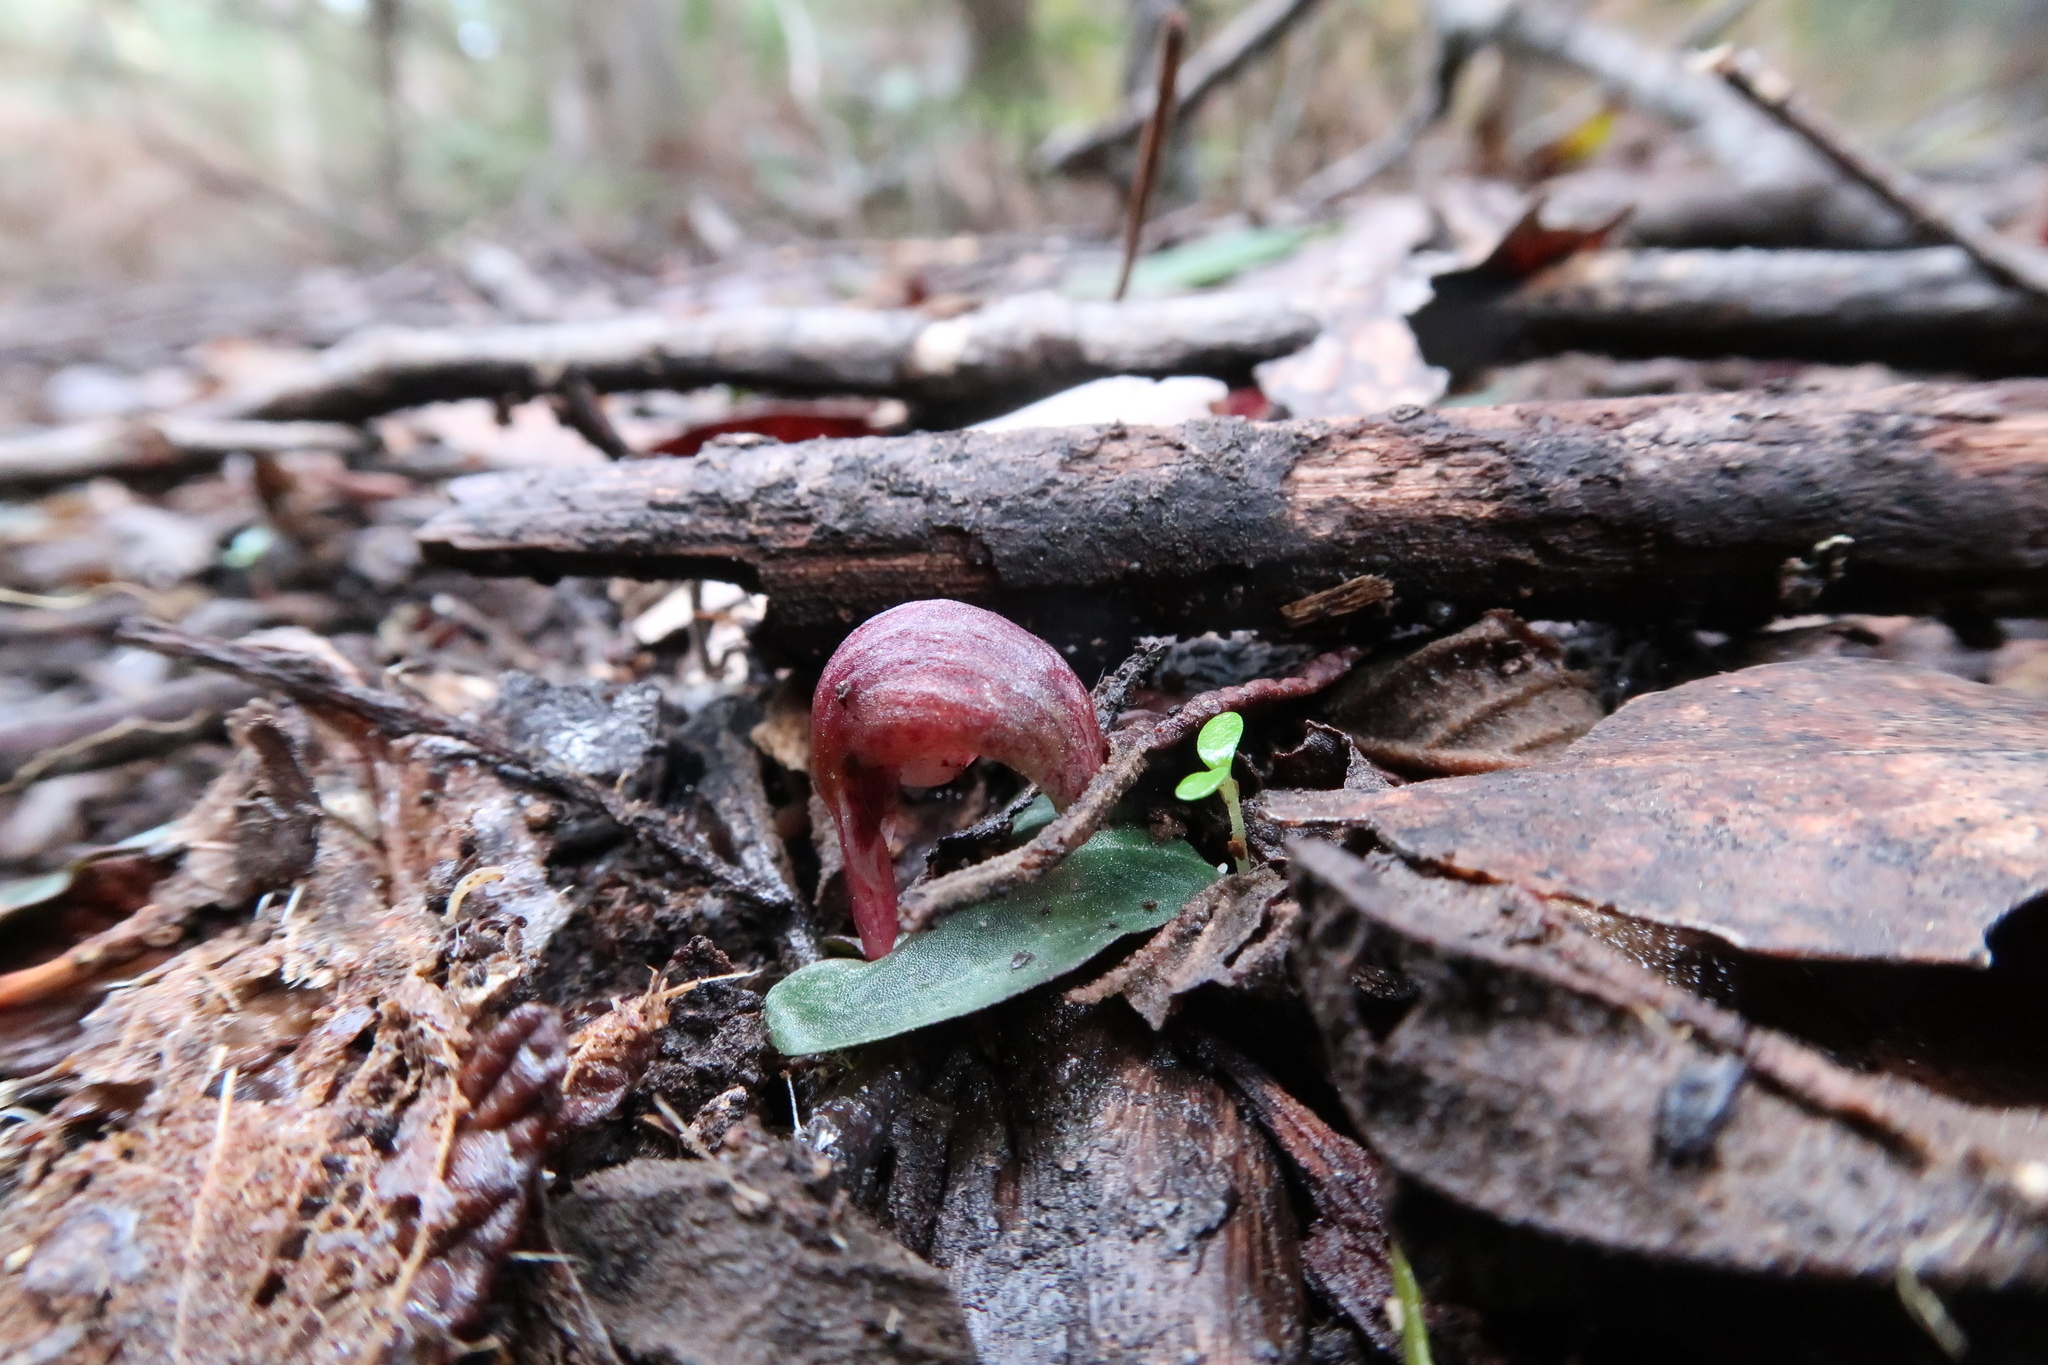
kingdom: Plantae
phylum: Tracheophyta
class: Liliopsida
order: Asparagales
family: Orchidaceae
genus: Corybas
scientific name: Corybas aconitiflorus
